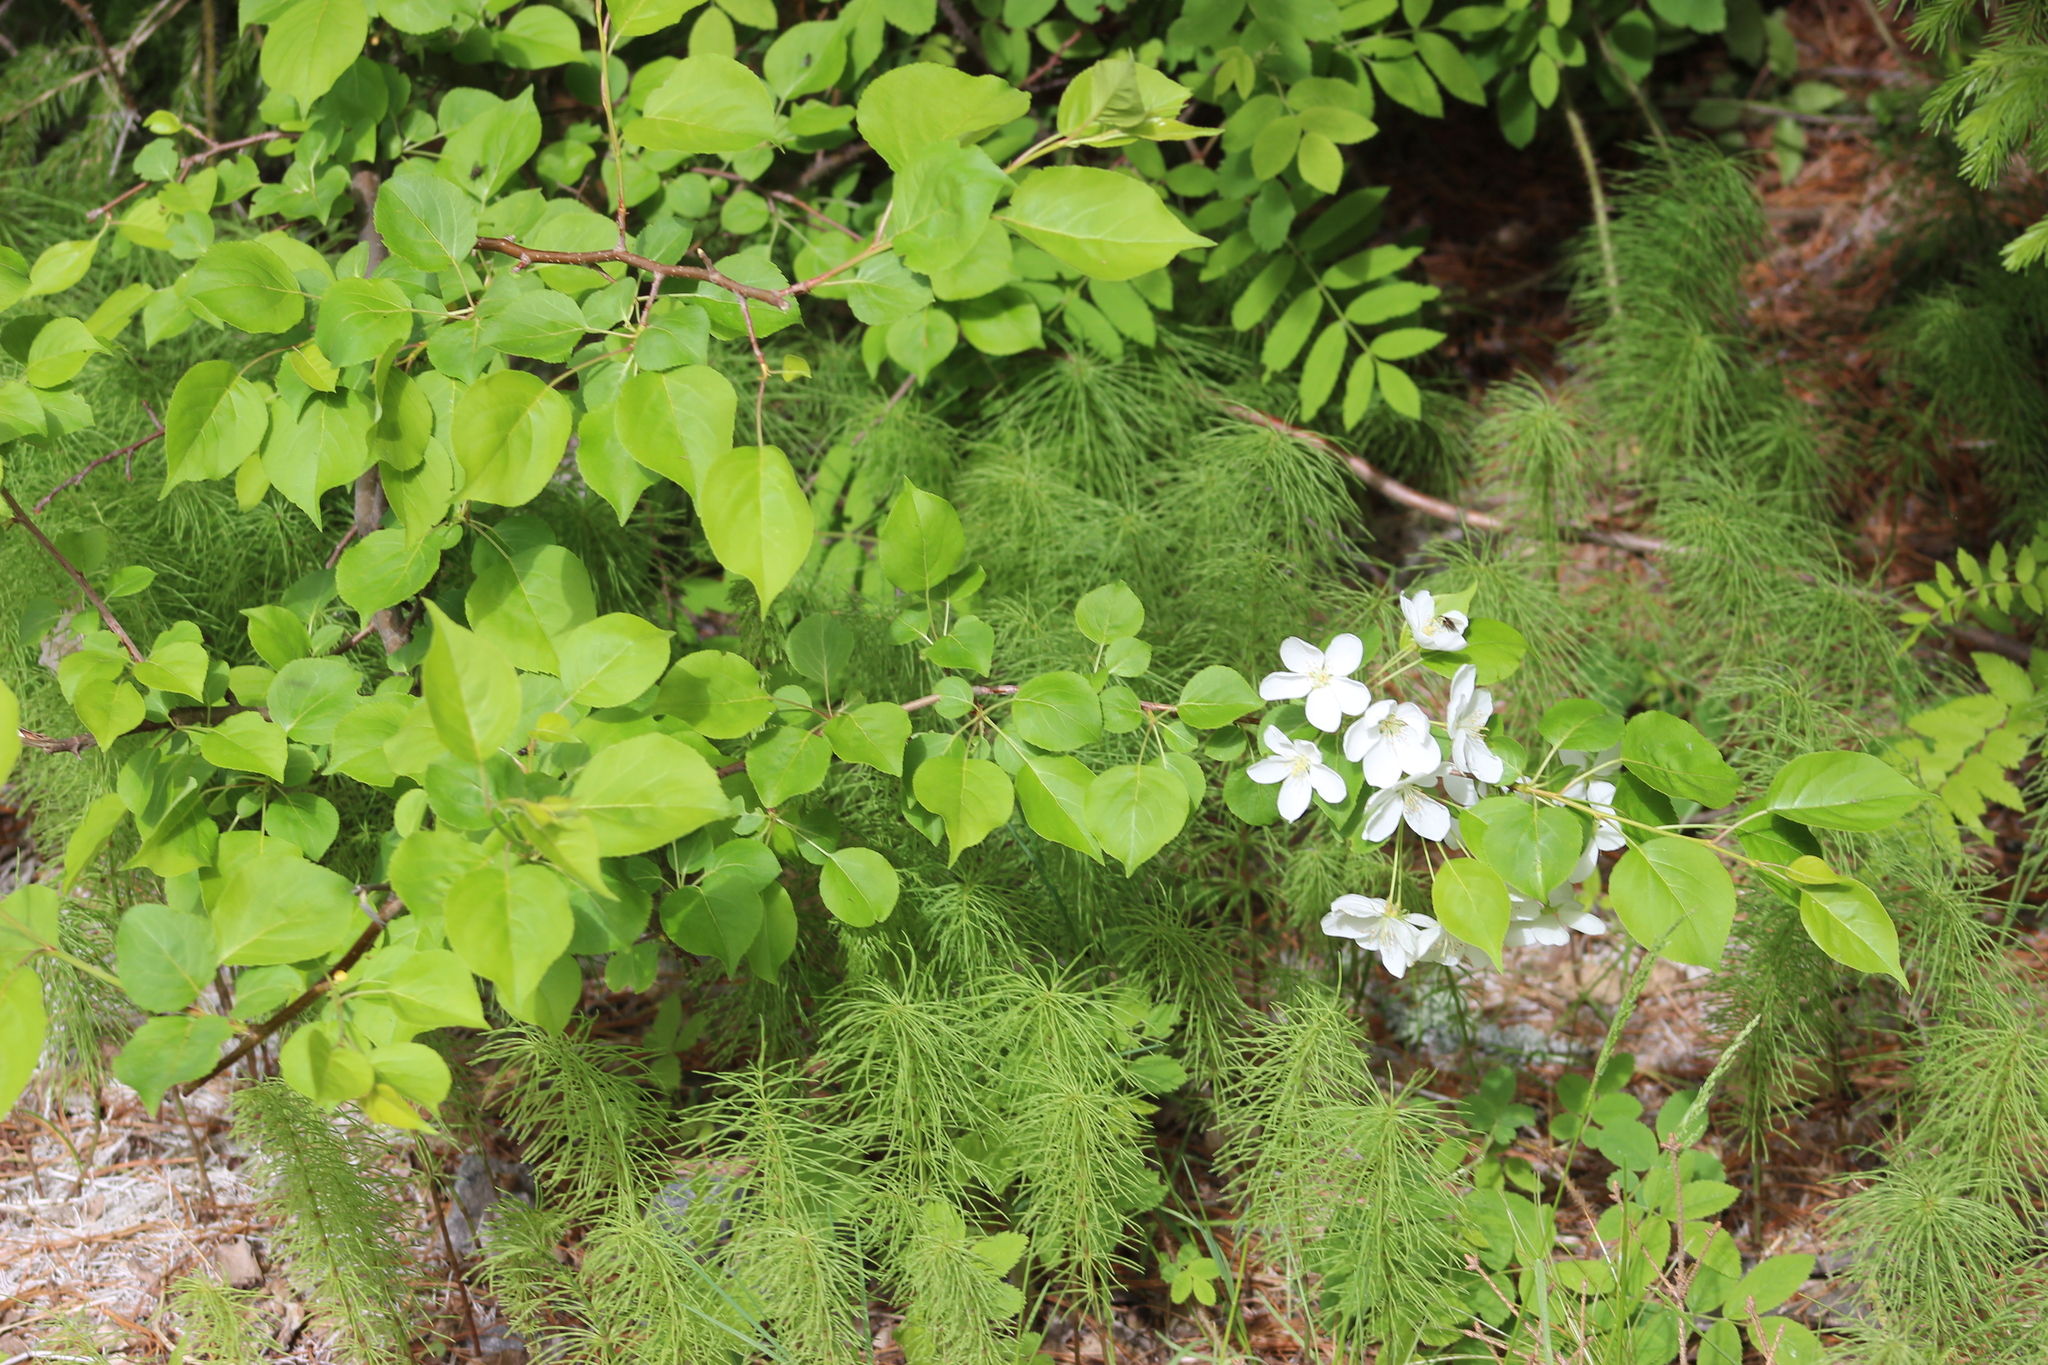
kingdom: Plantae
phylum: Tracheophyta
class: Magnoliopsida
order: Rosales
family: Rosaceae
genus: Malus
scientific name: Malus baccata
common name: Siberian crab
